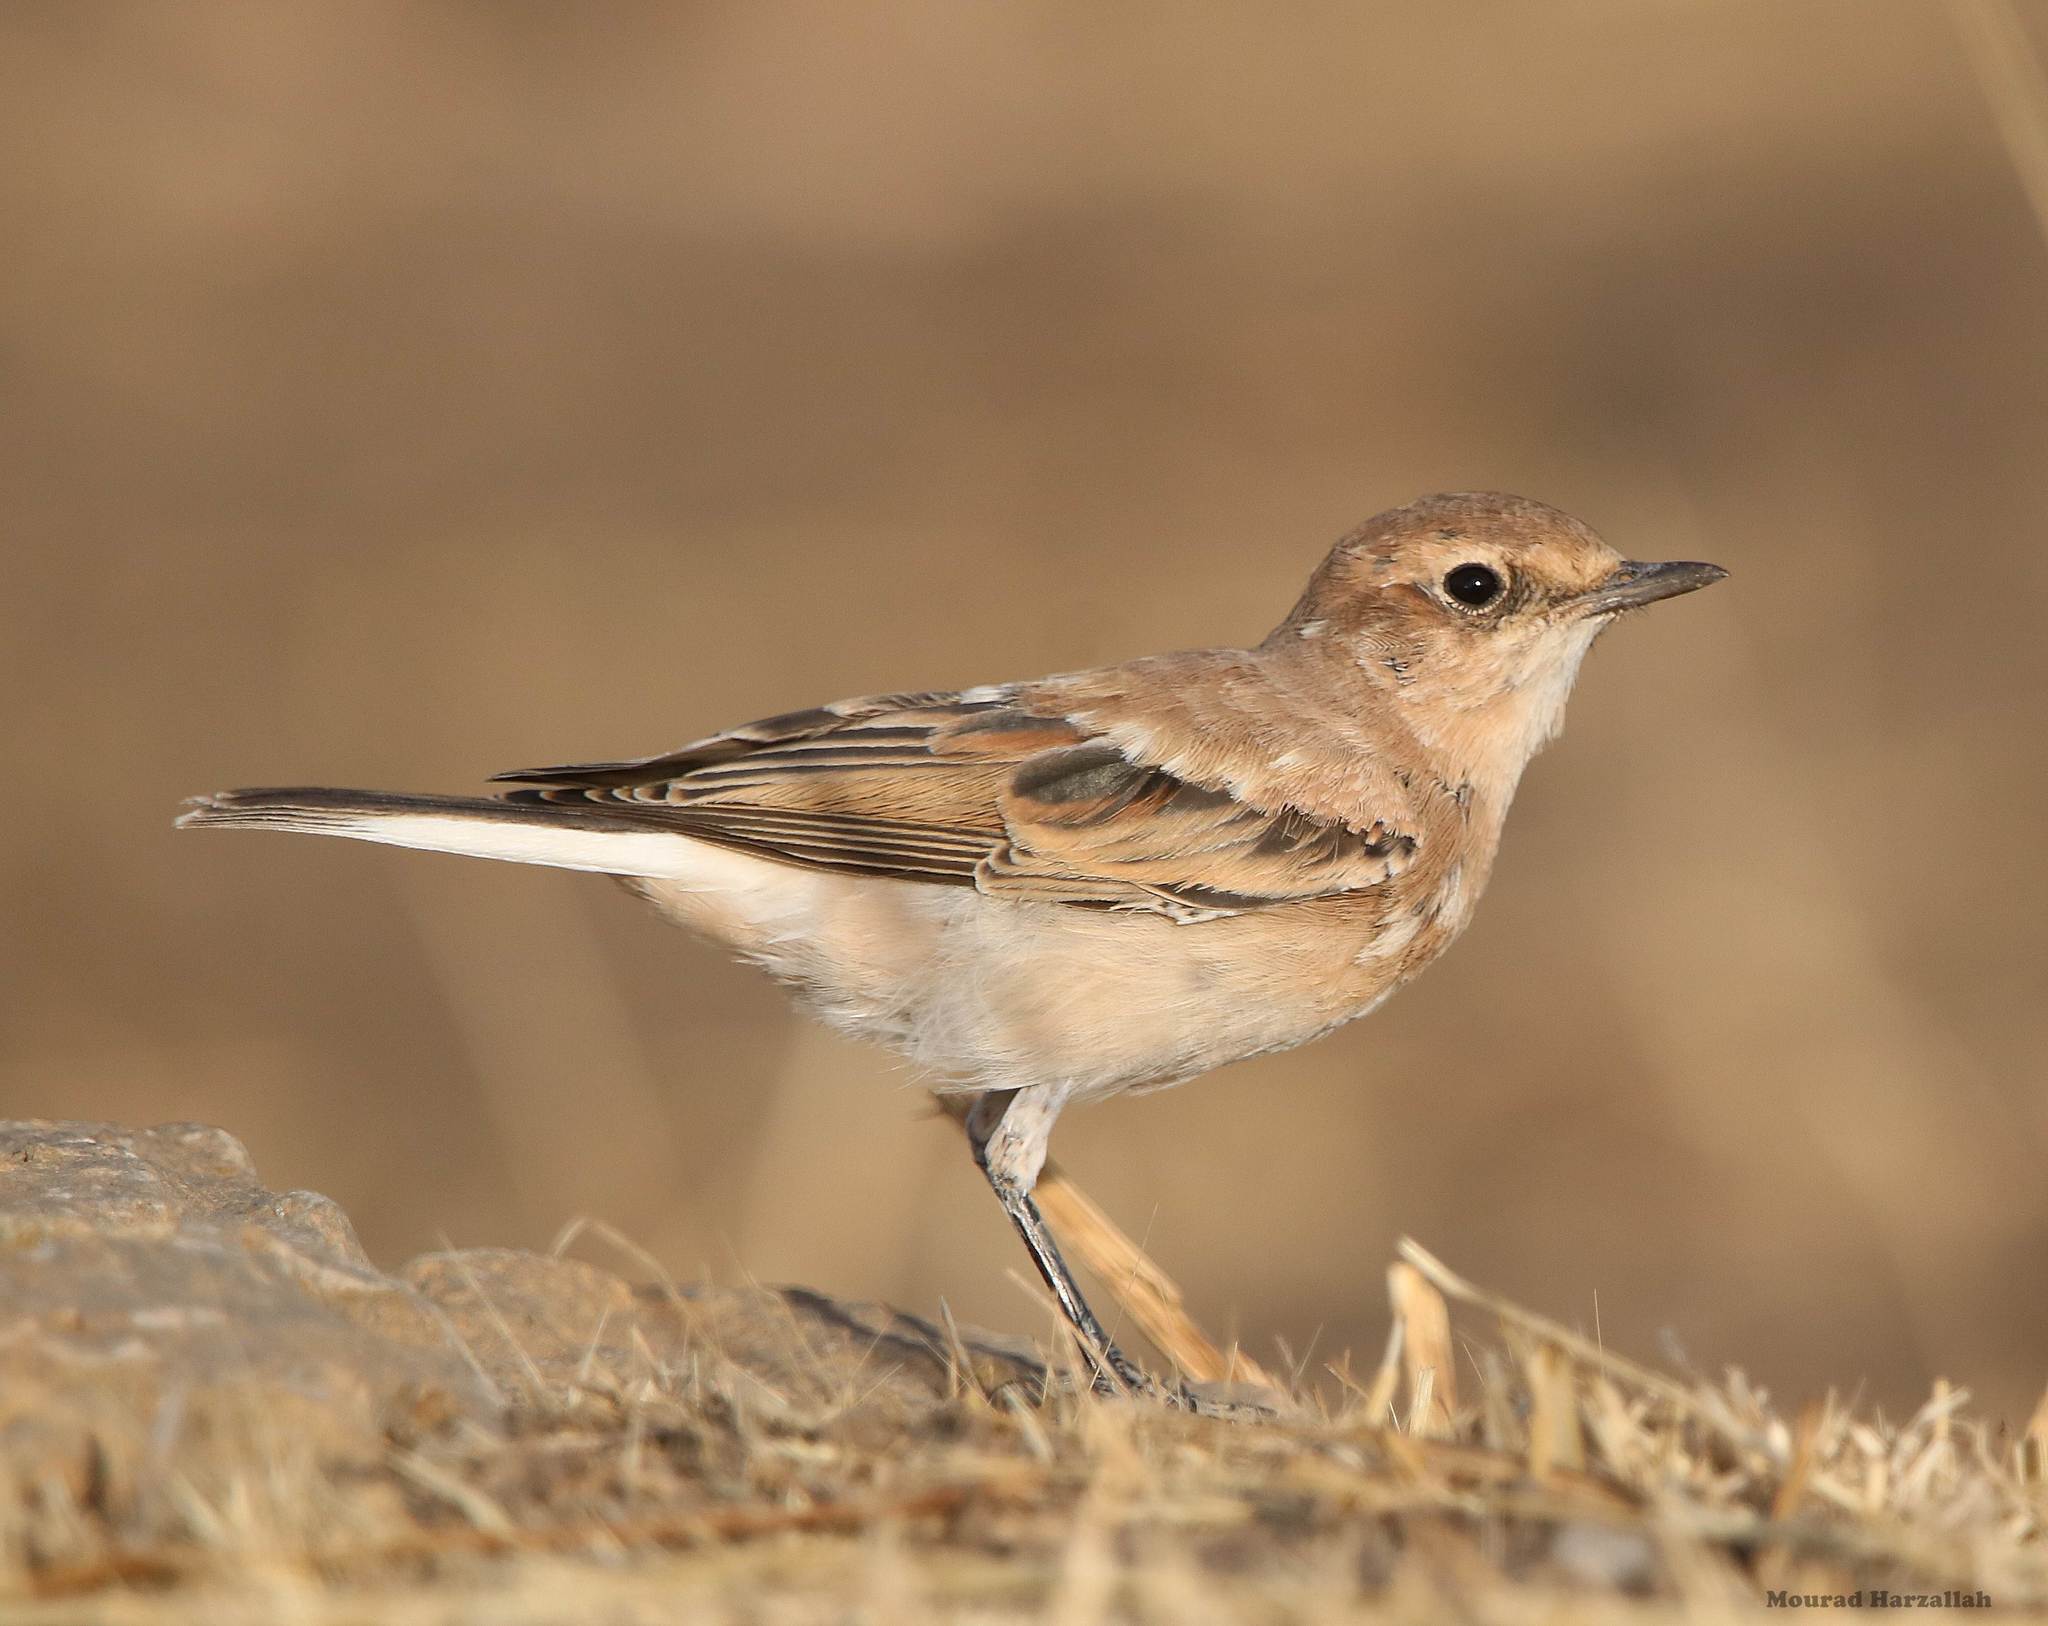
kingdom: Animalia
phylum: Chordata
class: Aves
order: Passeriformes
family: Muscicapidae
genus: Oenanthe
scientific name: Oenanthe oenanthe
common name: Northern wheatear
